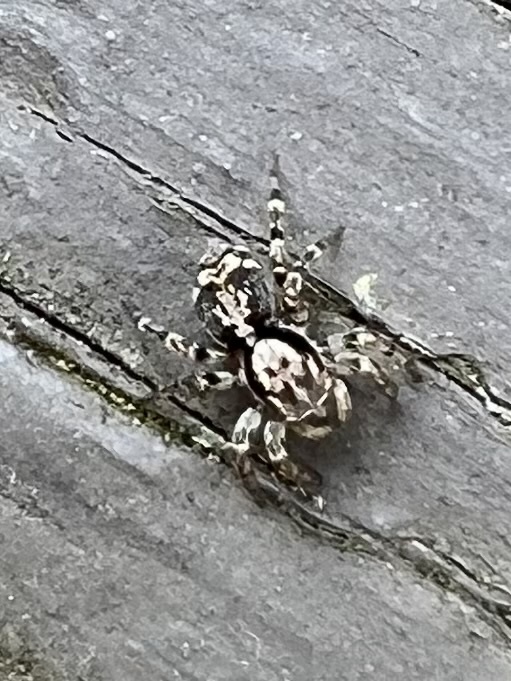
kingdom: Animalia
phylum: Arthropoda
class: Arachnida
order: Araneae
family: Salticidae
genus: Naphrys
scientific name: Naphrys pulex
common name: Flea jumping spider
